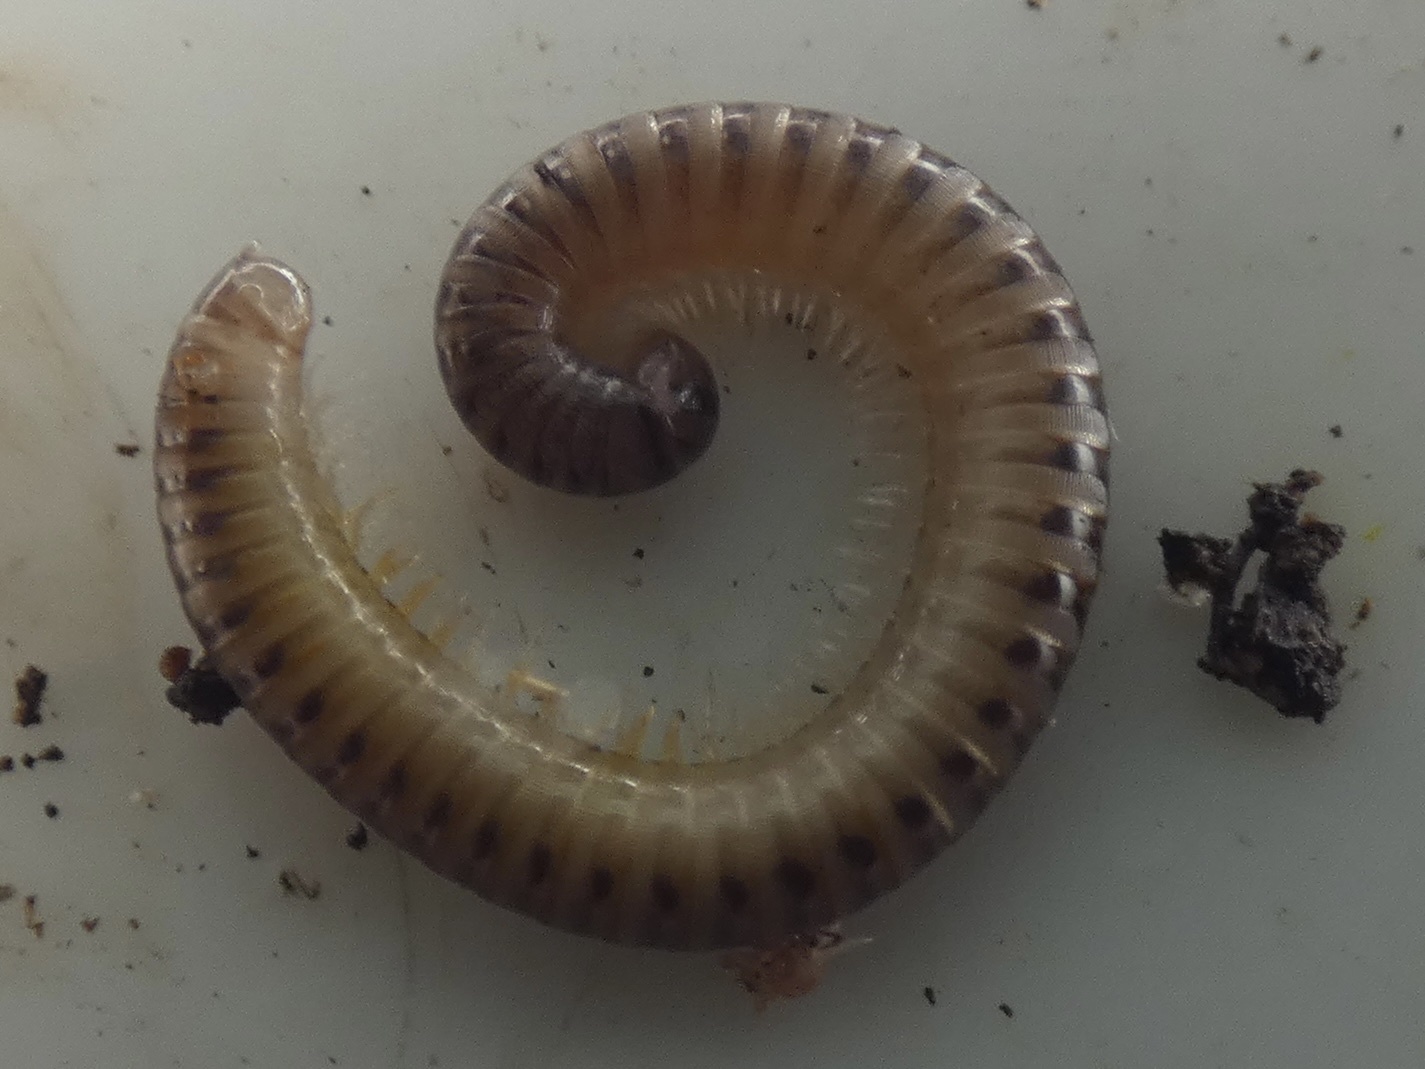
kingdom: Animalia
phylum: Arthropoda
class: Diplopoda
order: Julida
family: Julidae
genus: Cylindroiulus
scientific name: Cylindroiulus punctatus
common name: Blunt-tailed millipede
